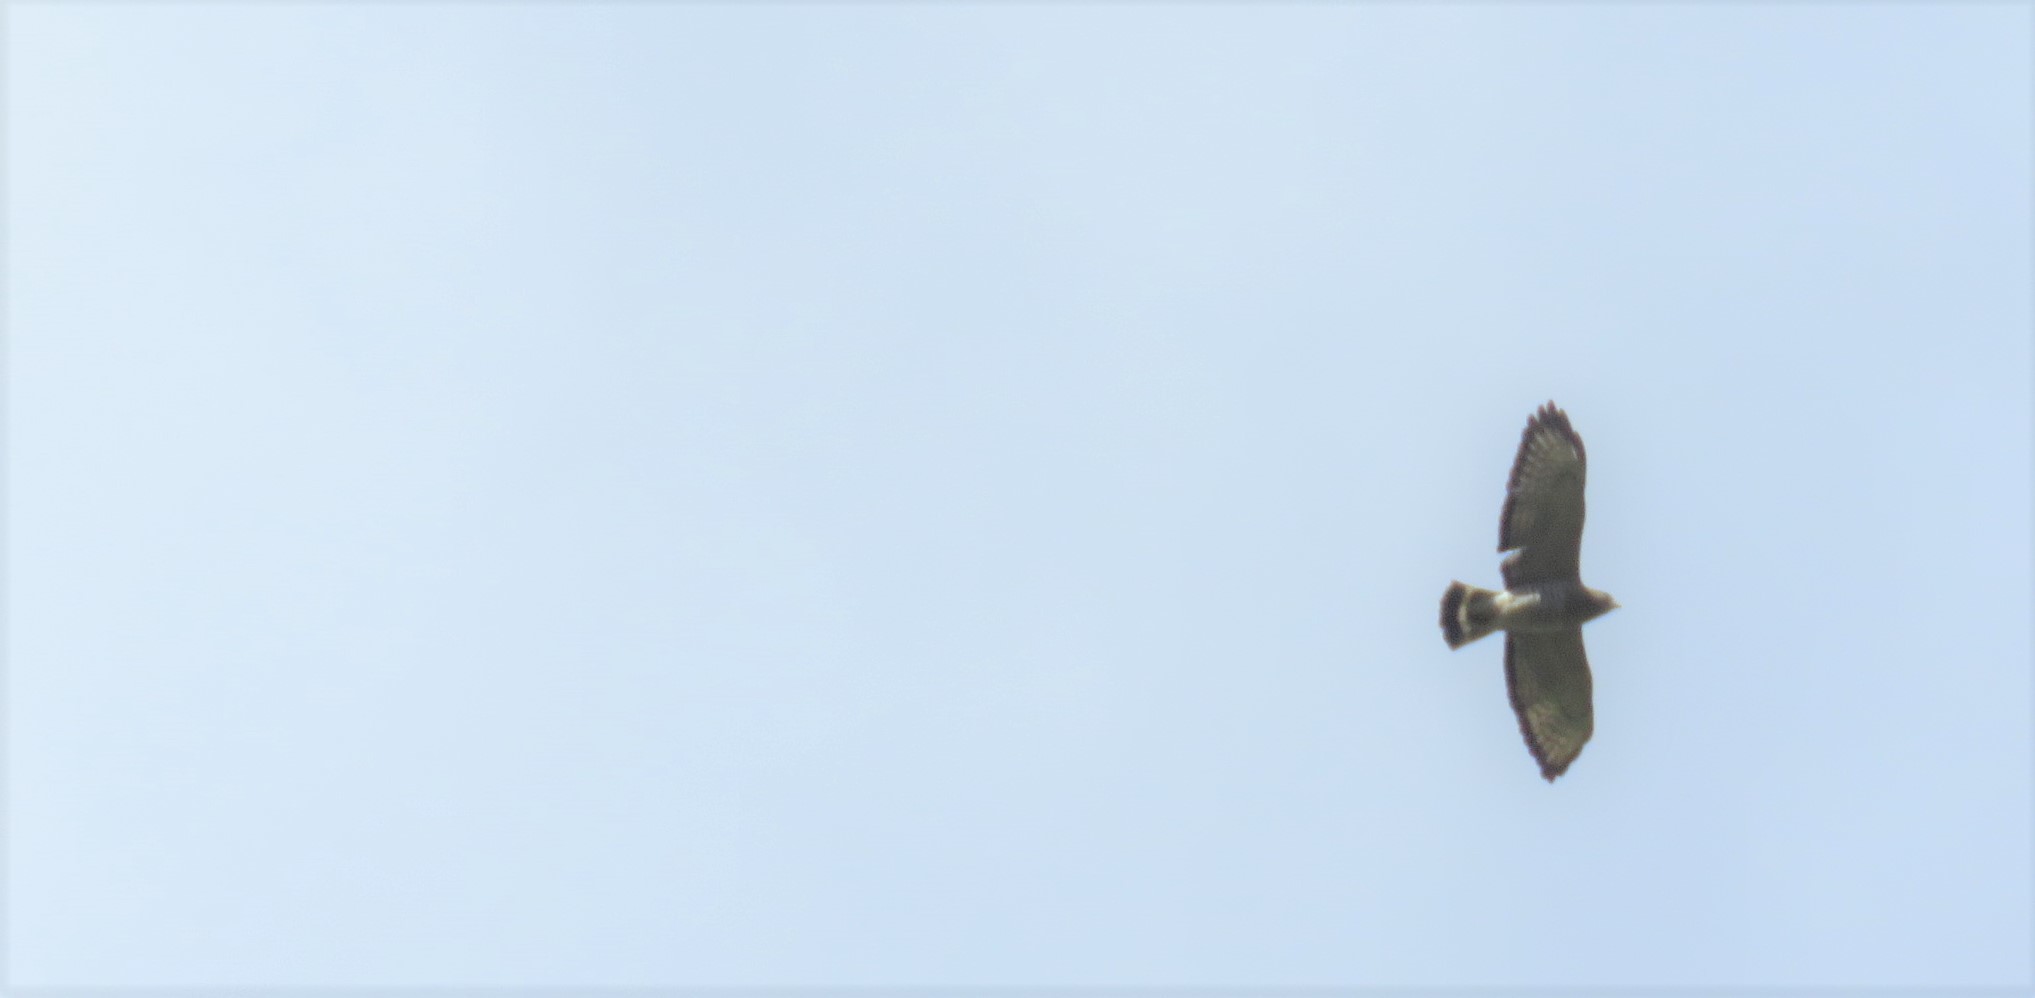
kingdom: Animalia
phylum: Chordata
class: Aves
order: Accipitriformes
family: Accipitridae
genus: Buteo
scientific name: Buteo platypterus
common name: Broad-winged hawk
